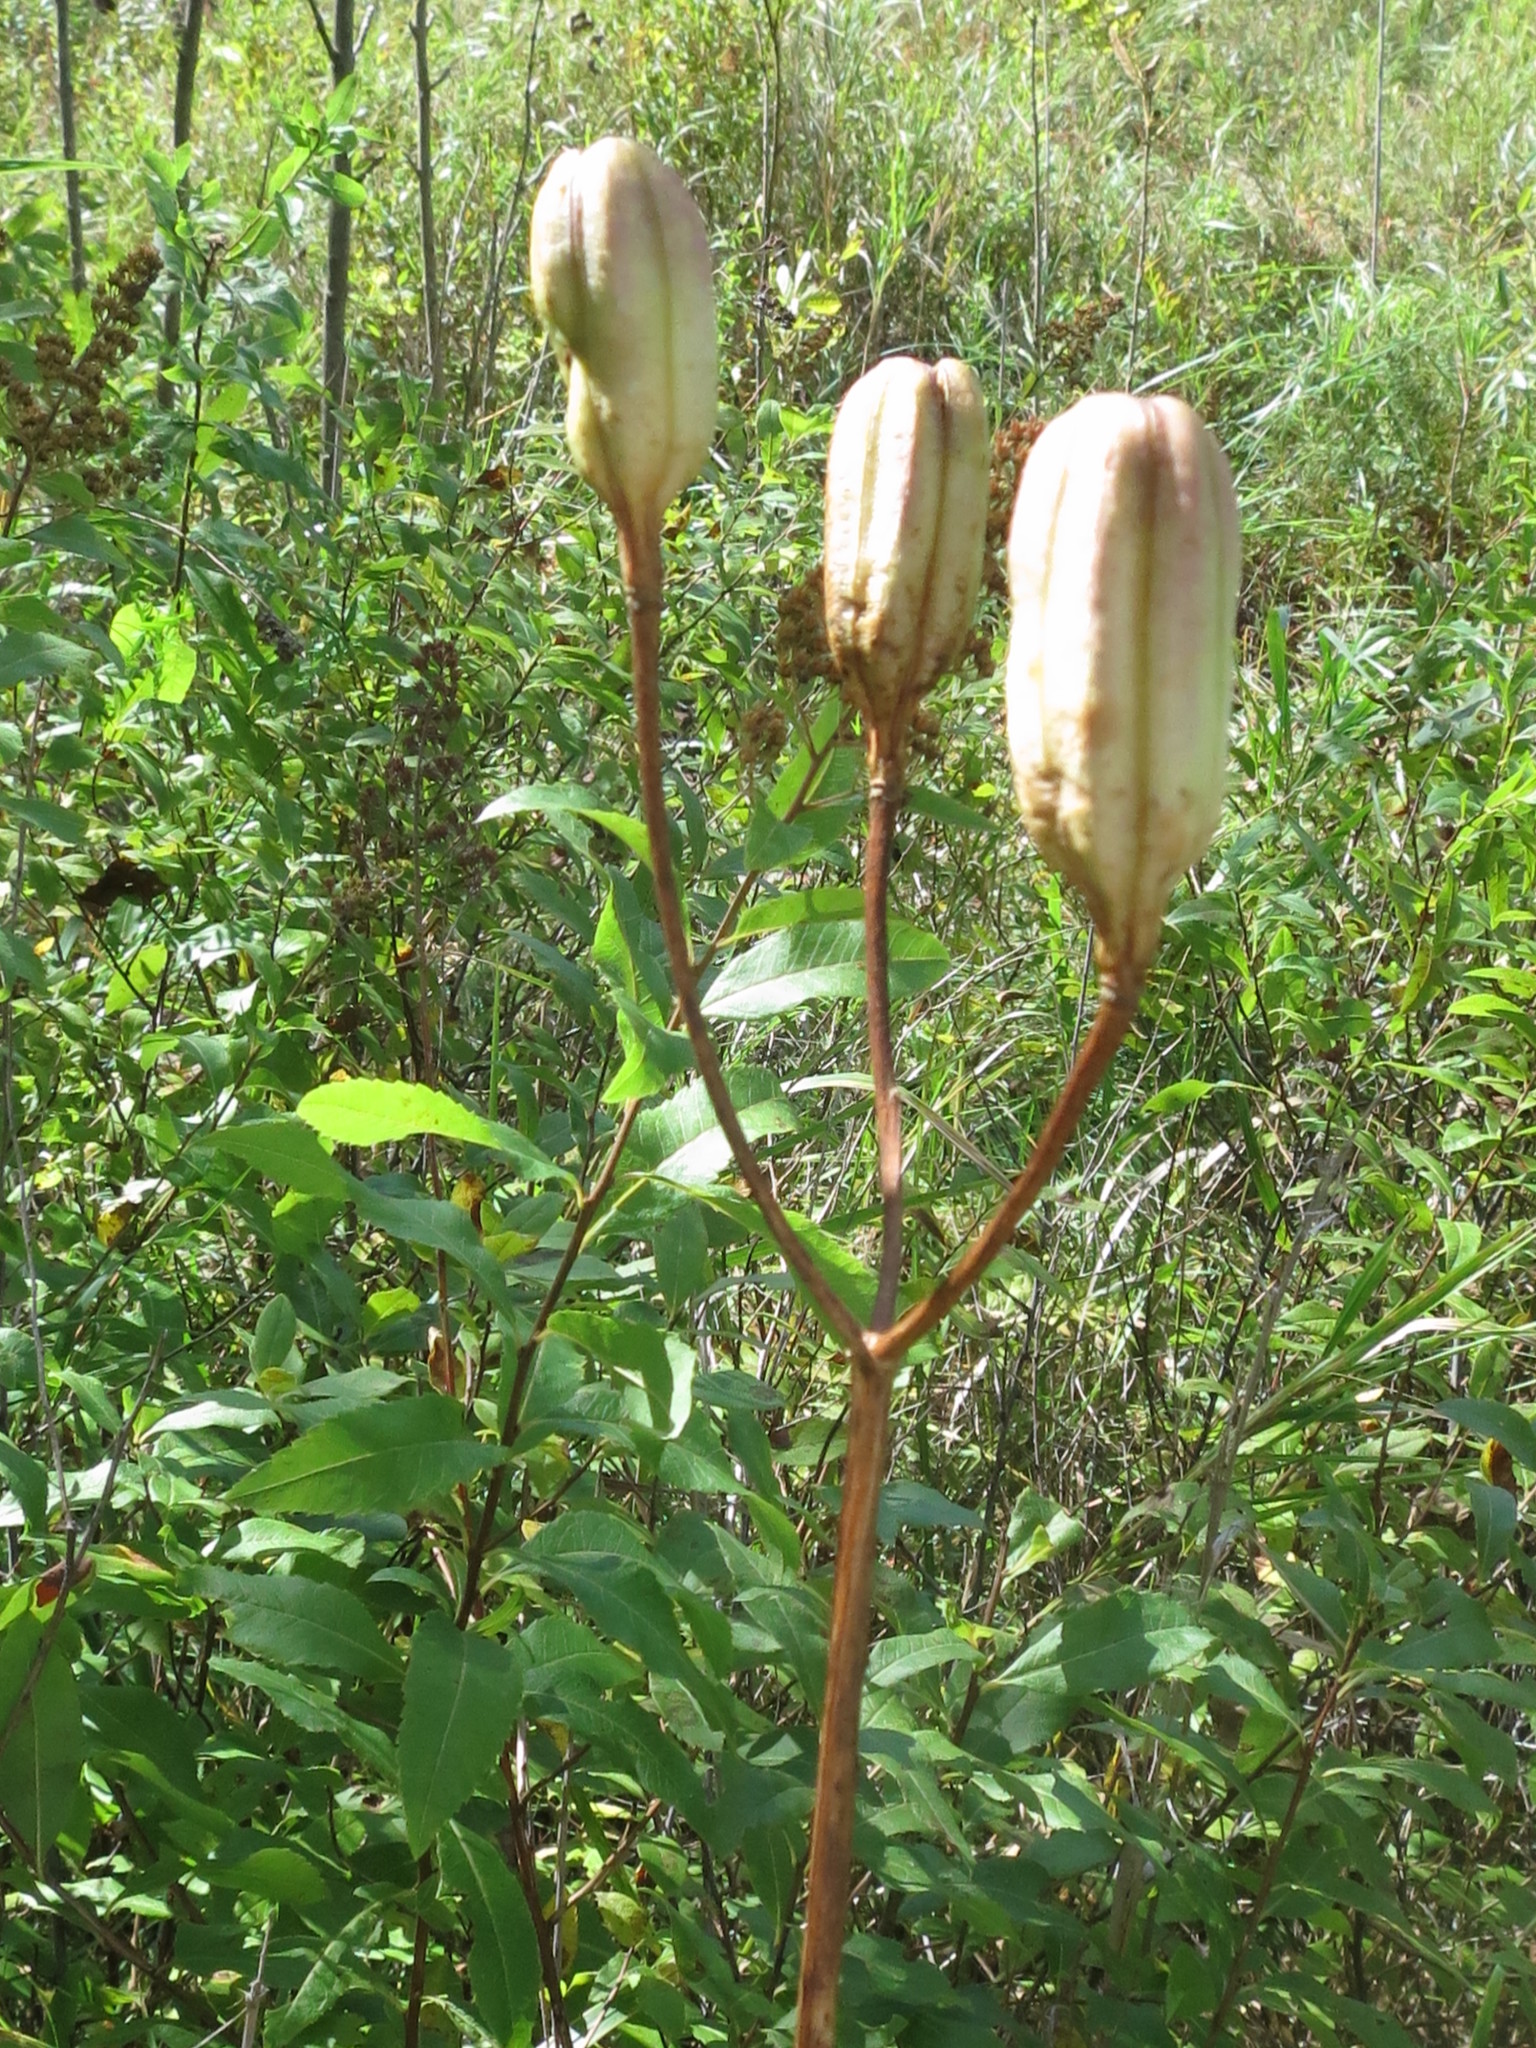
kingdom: Plantae
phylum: Tracheophyta
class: Liliopsida
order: Liliales
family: Liliaceae
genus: Lilium
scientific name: Lilium pensylvanicum
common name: Candlestick lily
